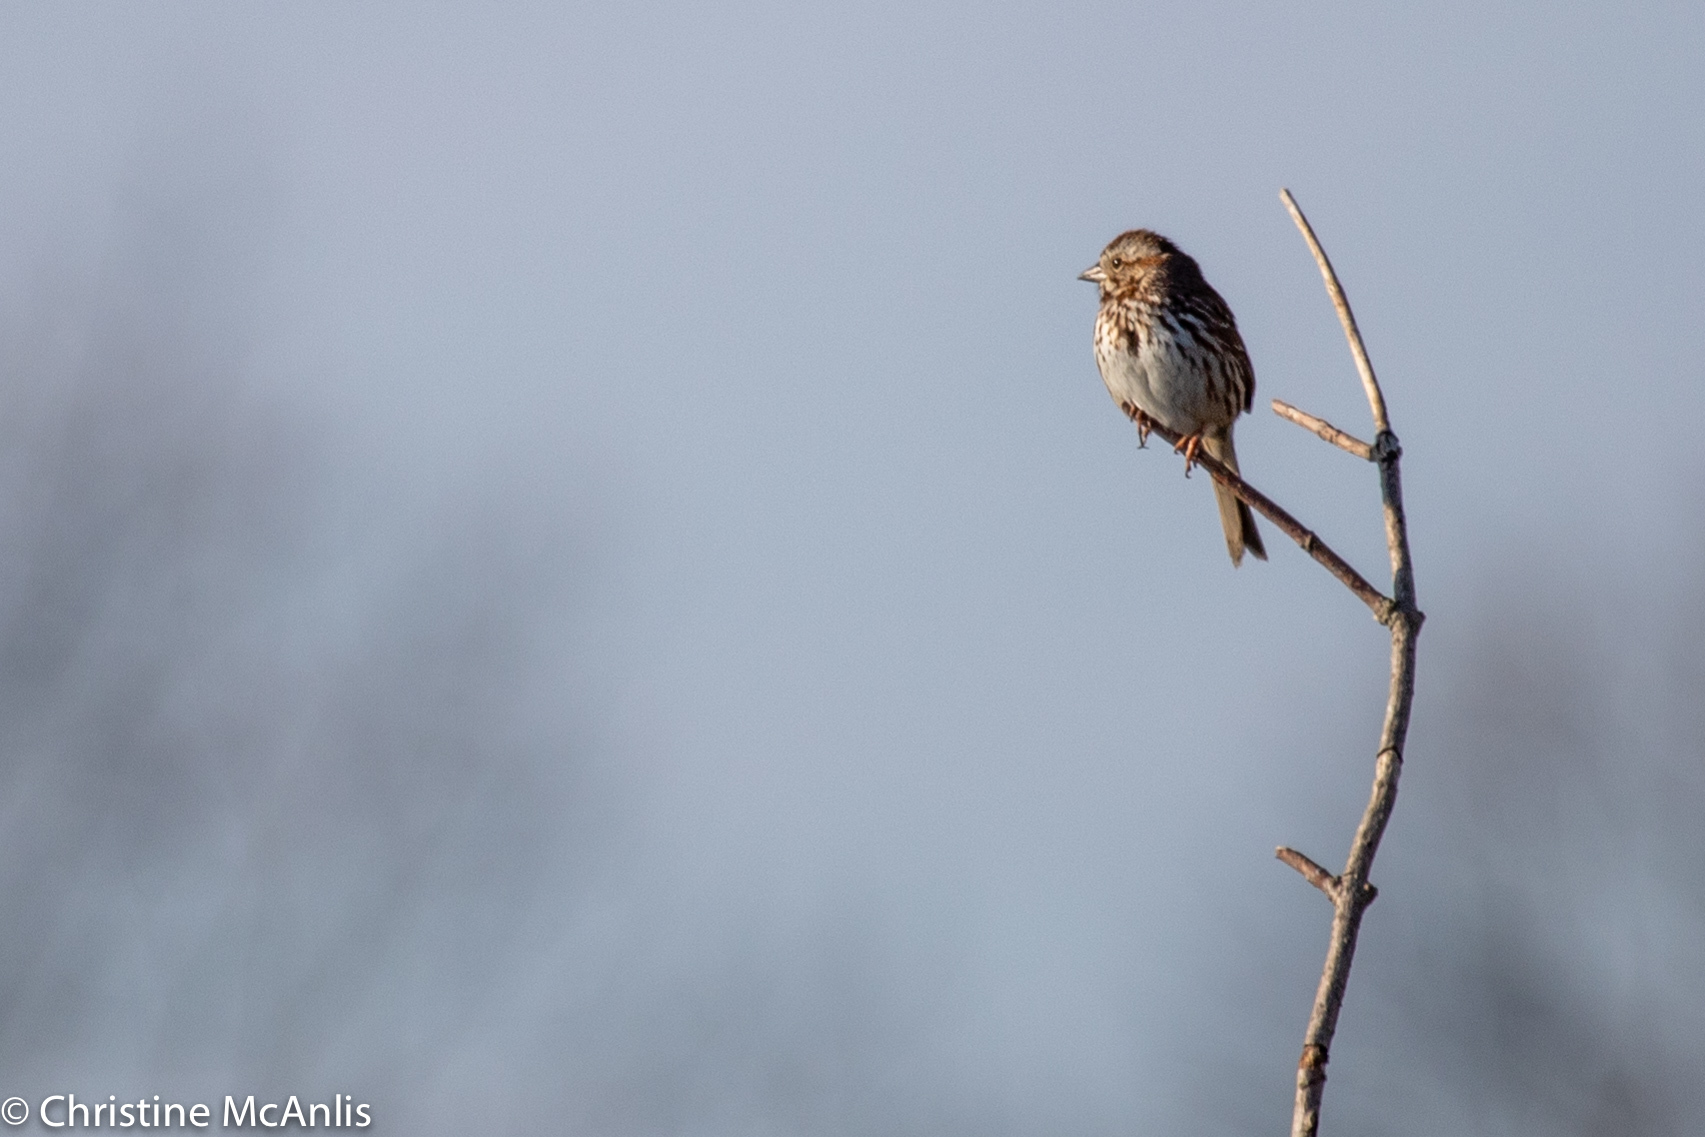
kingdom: Animalia
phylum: Chordata
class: Aves
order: Passeriformes
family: Passerellidae
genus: Melospiza
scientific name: Melospiza melodia
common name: Song sparrow
